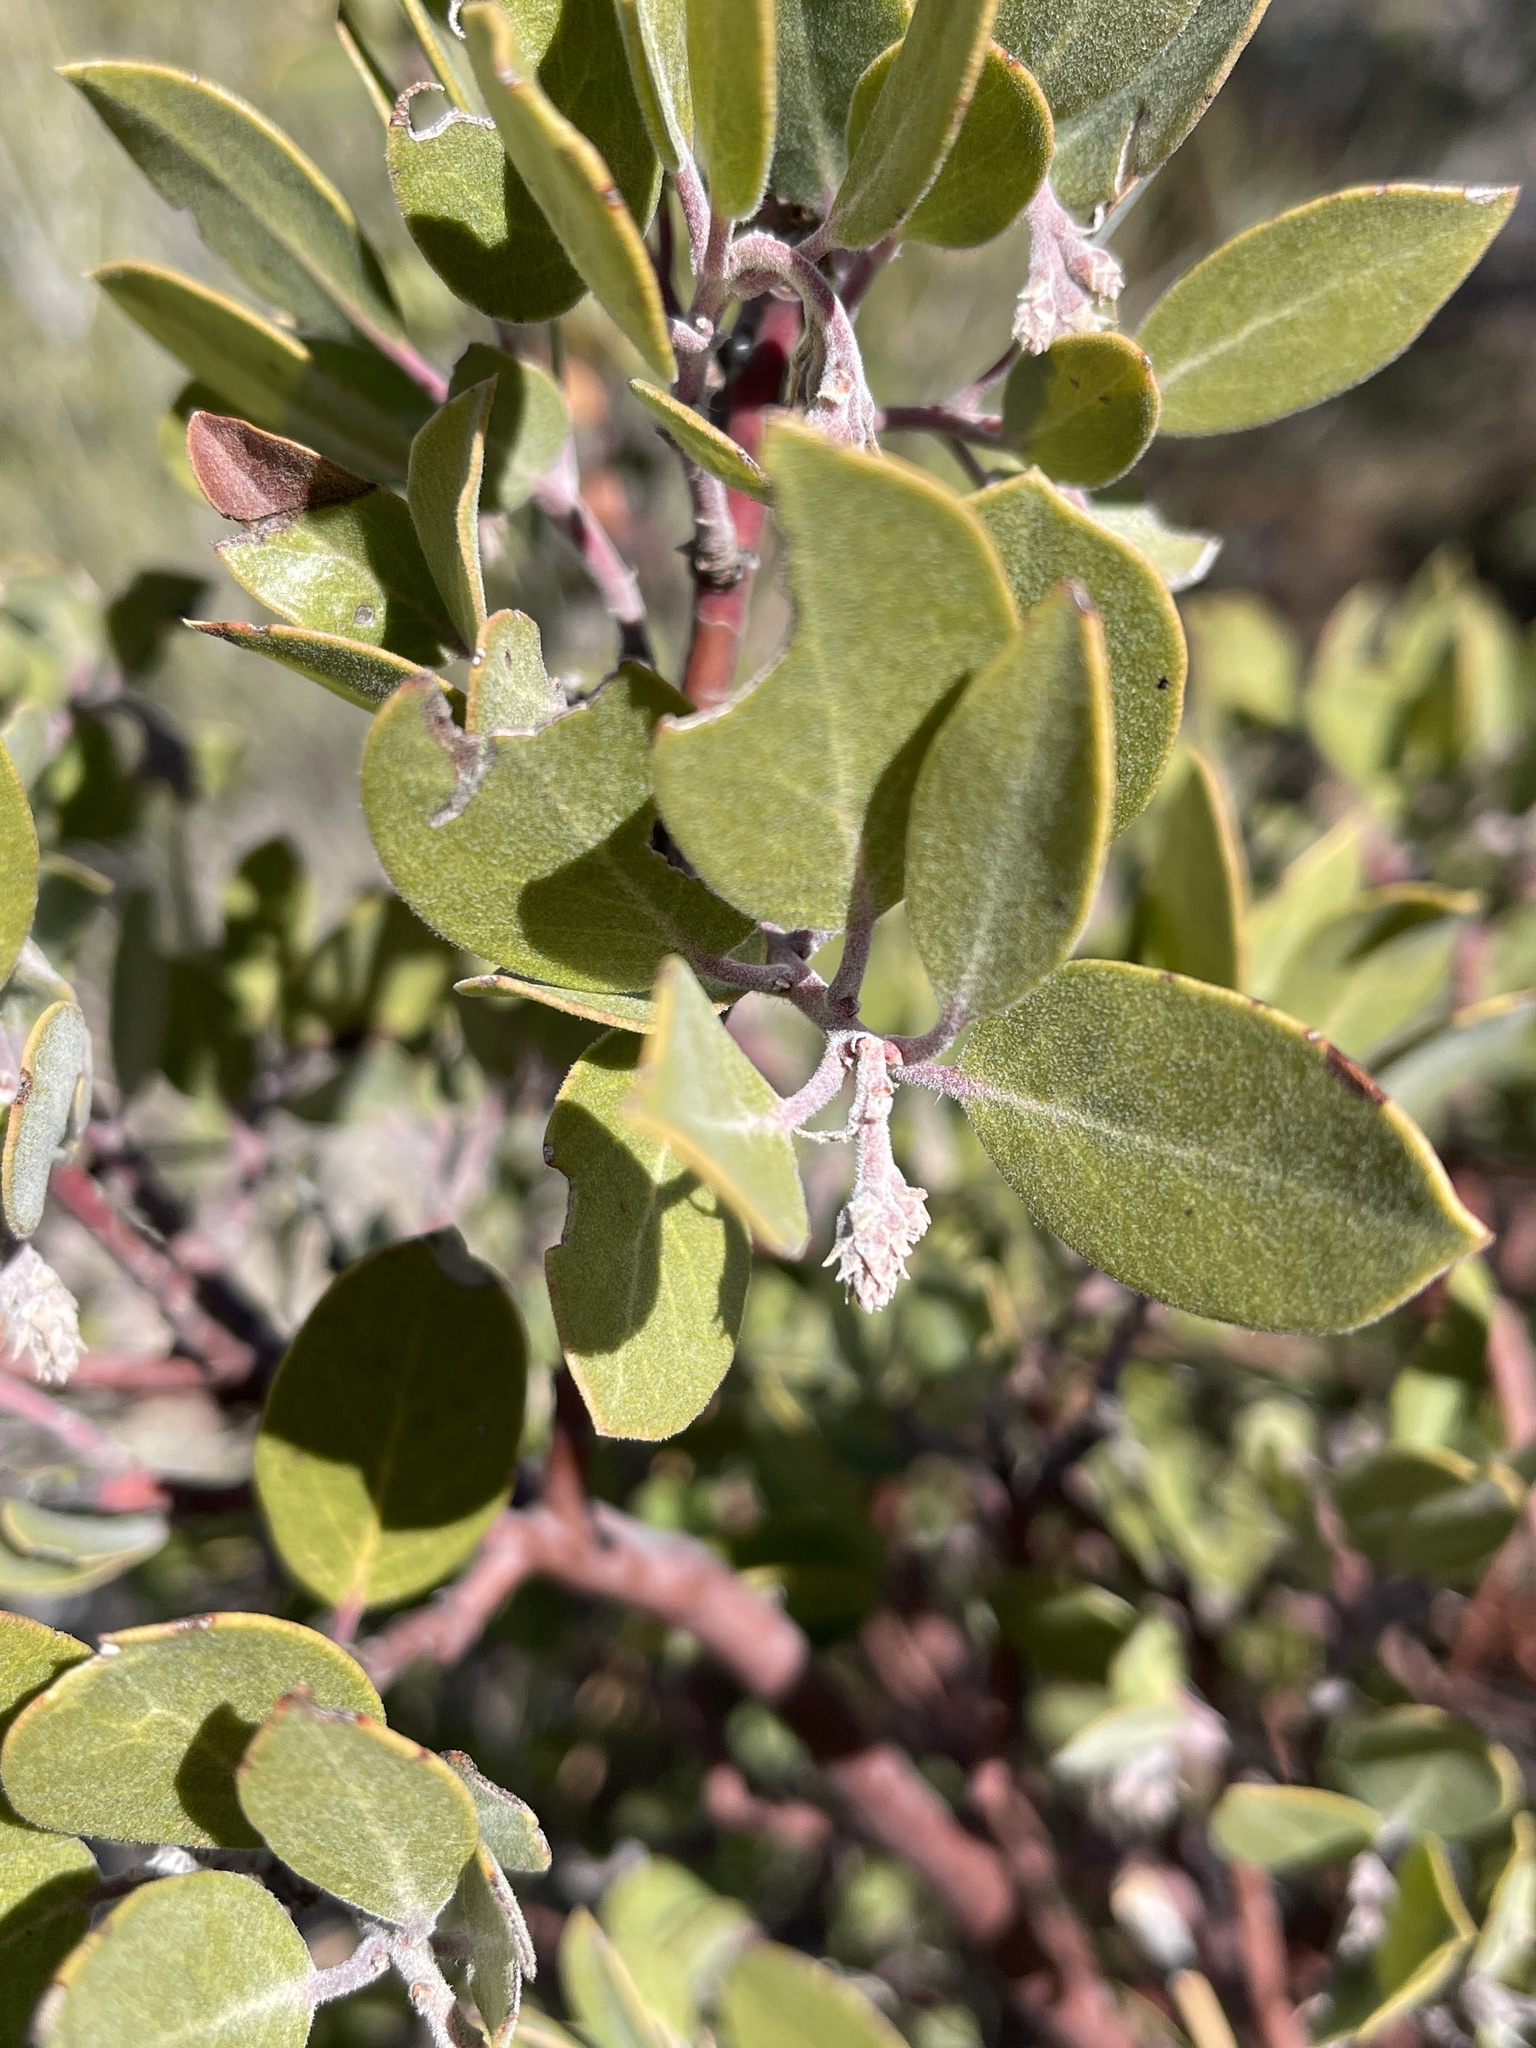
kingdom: Plantae
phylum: Tracheophyta
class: Magnoliopsida
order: Ericales
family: Ericaceae
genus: Arctostaphylos
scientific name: Arctostaphylos glandulosa
